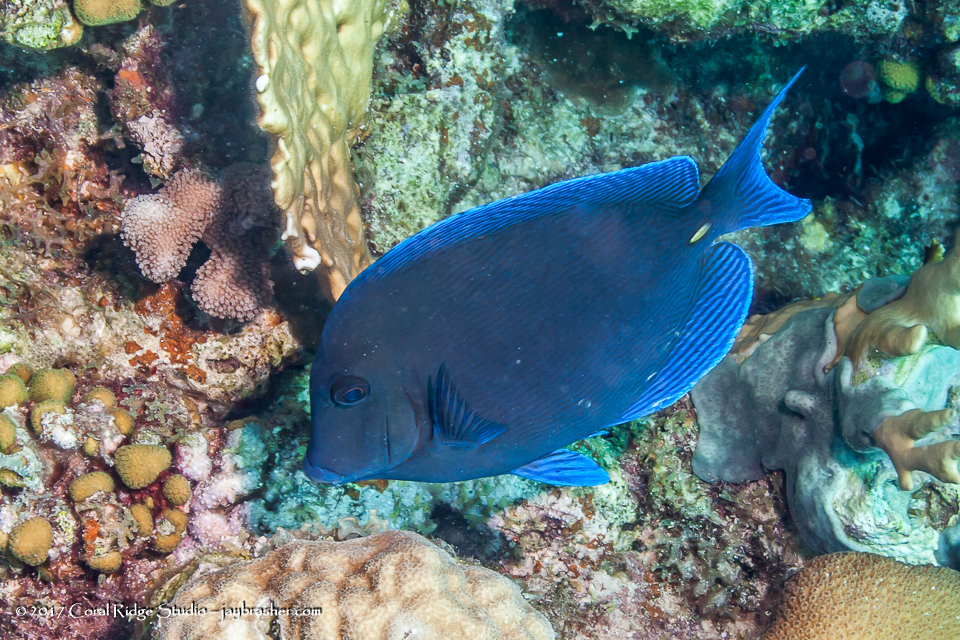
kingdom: Animalia
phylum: Chordata
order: Perciformes
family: Acanthuridae
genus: Acanthurus
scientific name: Acanthurus coeruleus
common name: Blue tang
